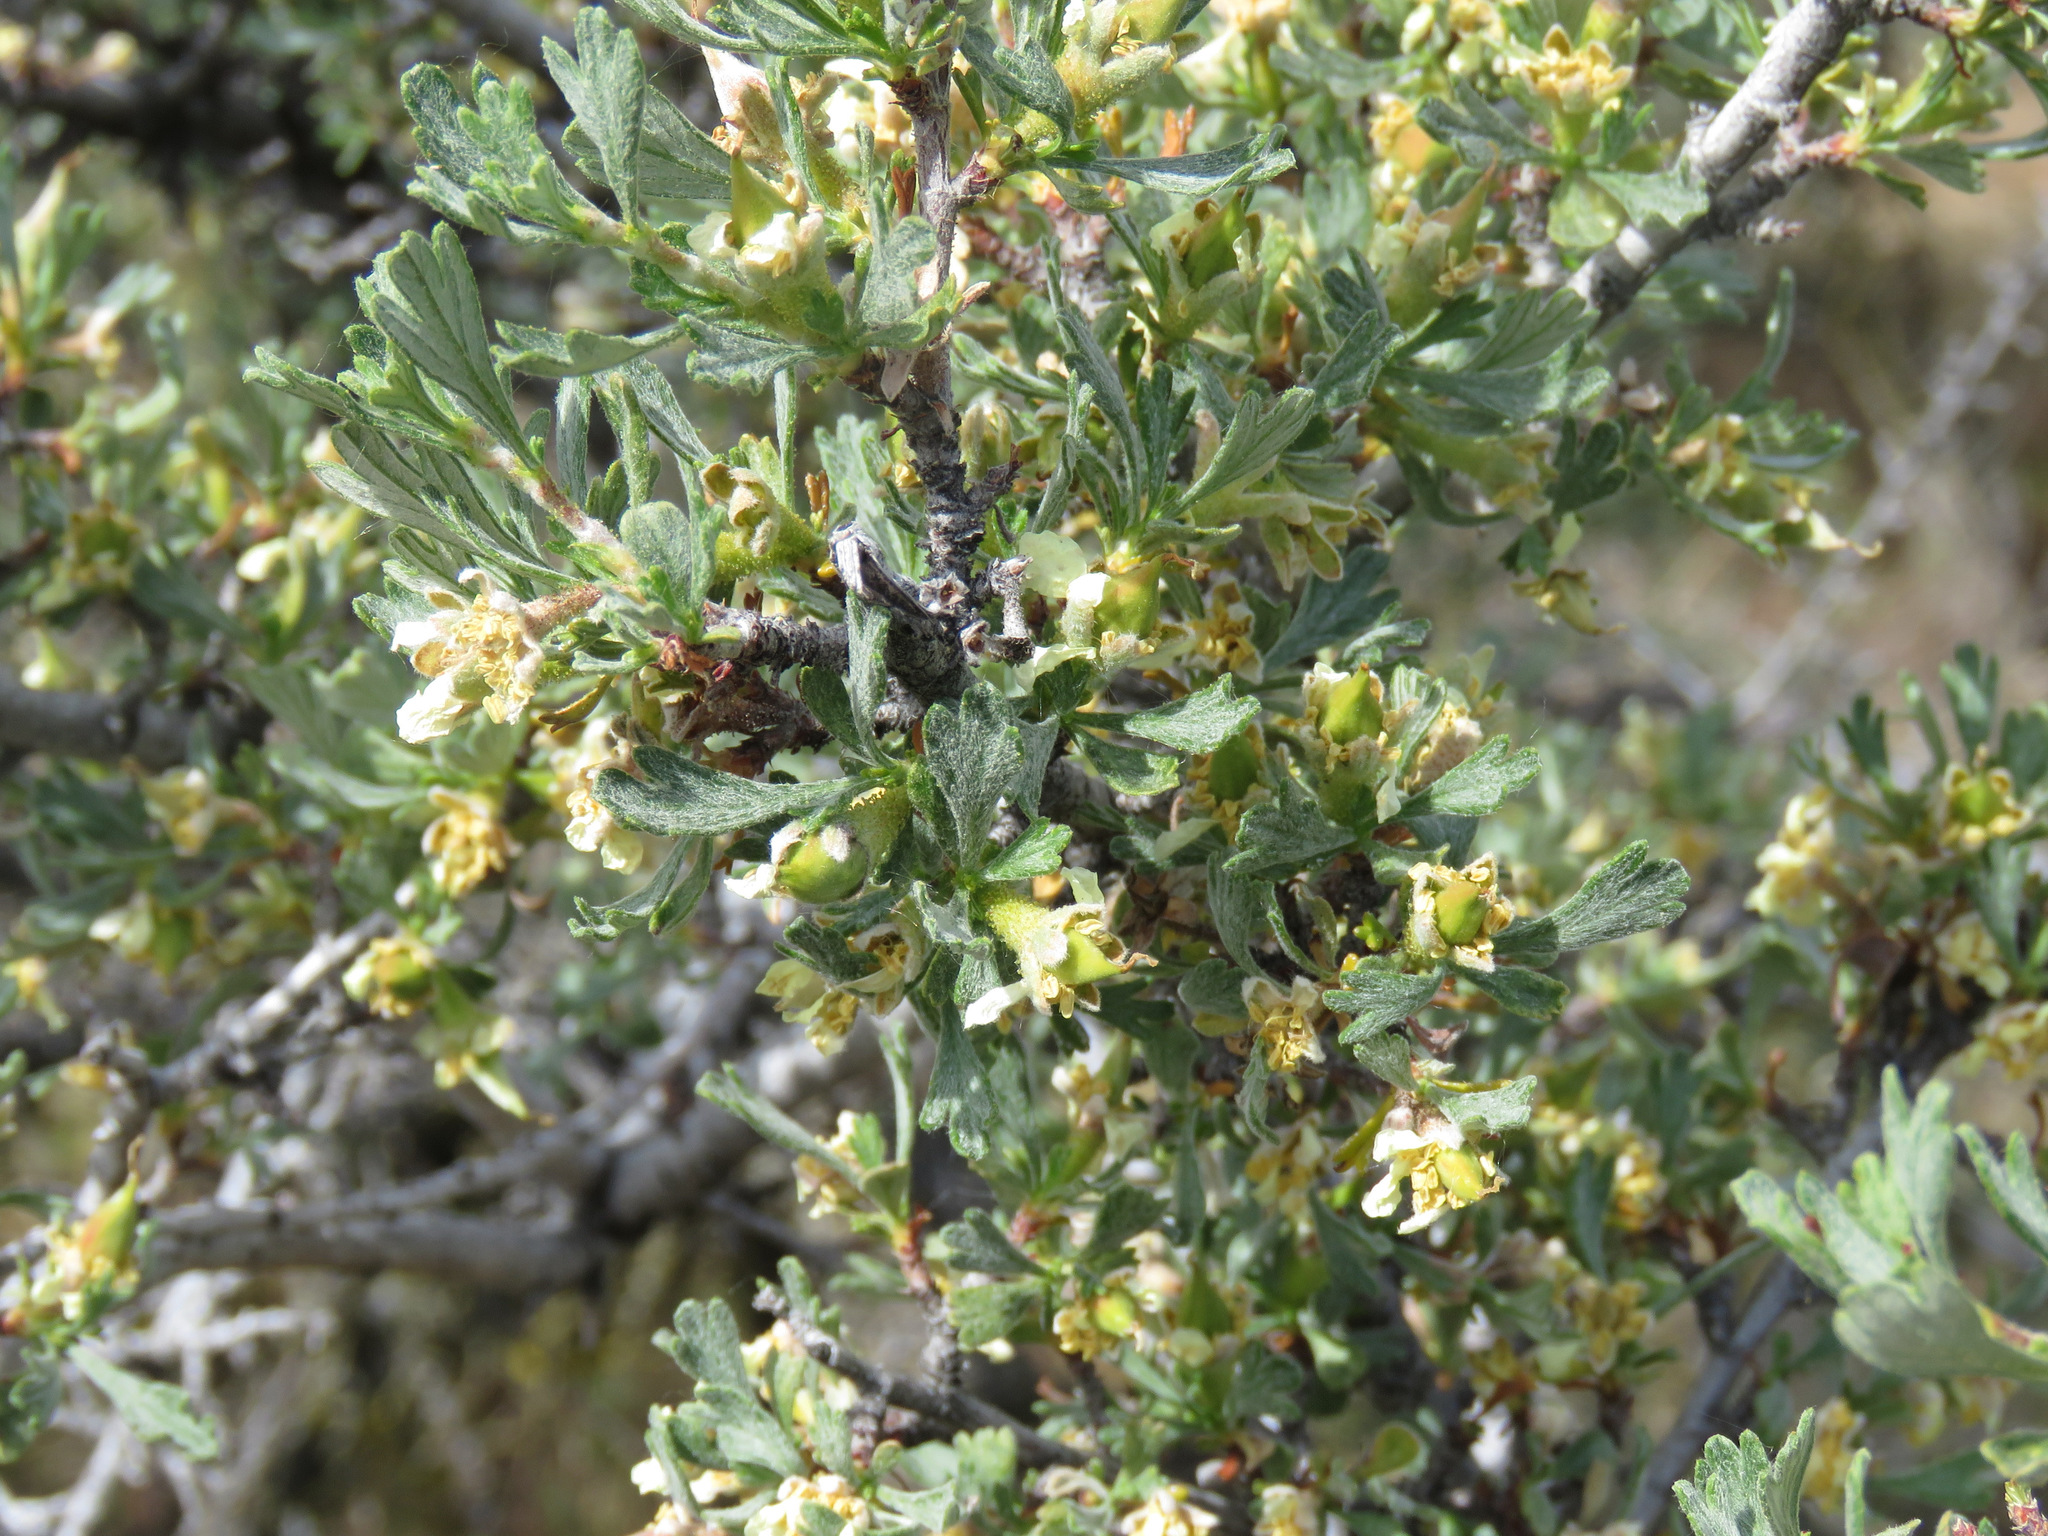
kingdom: Plantae
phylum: Tracheophyta
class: Magnoliopsida
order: Rosales
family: Rosaceae
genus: Purshia
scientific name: Purshia tridentata
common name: Antelope bitterbrush
